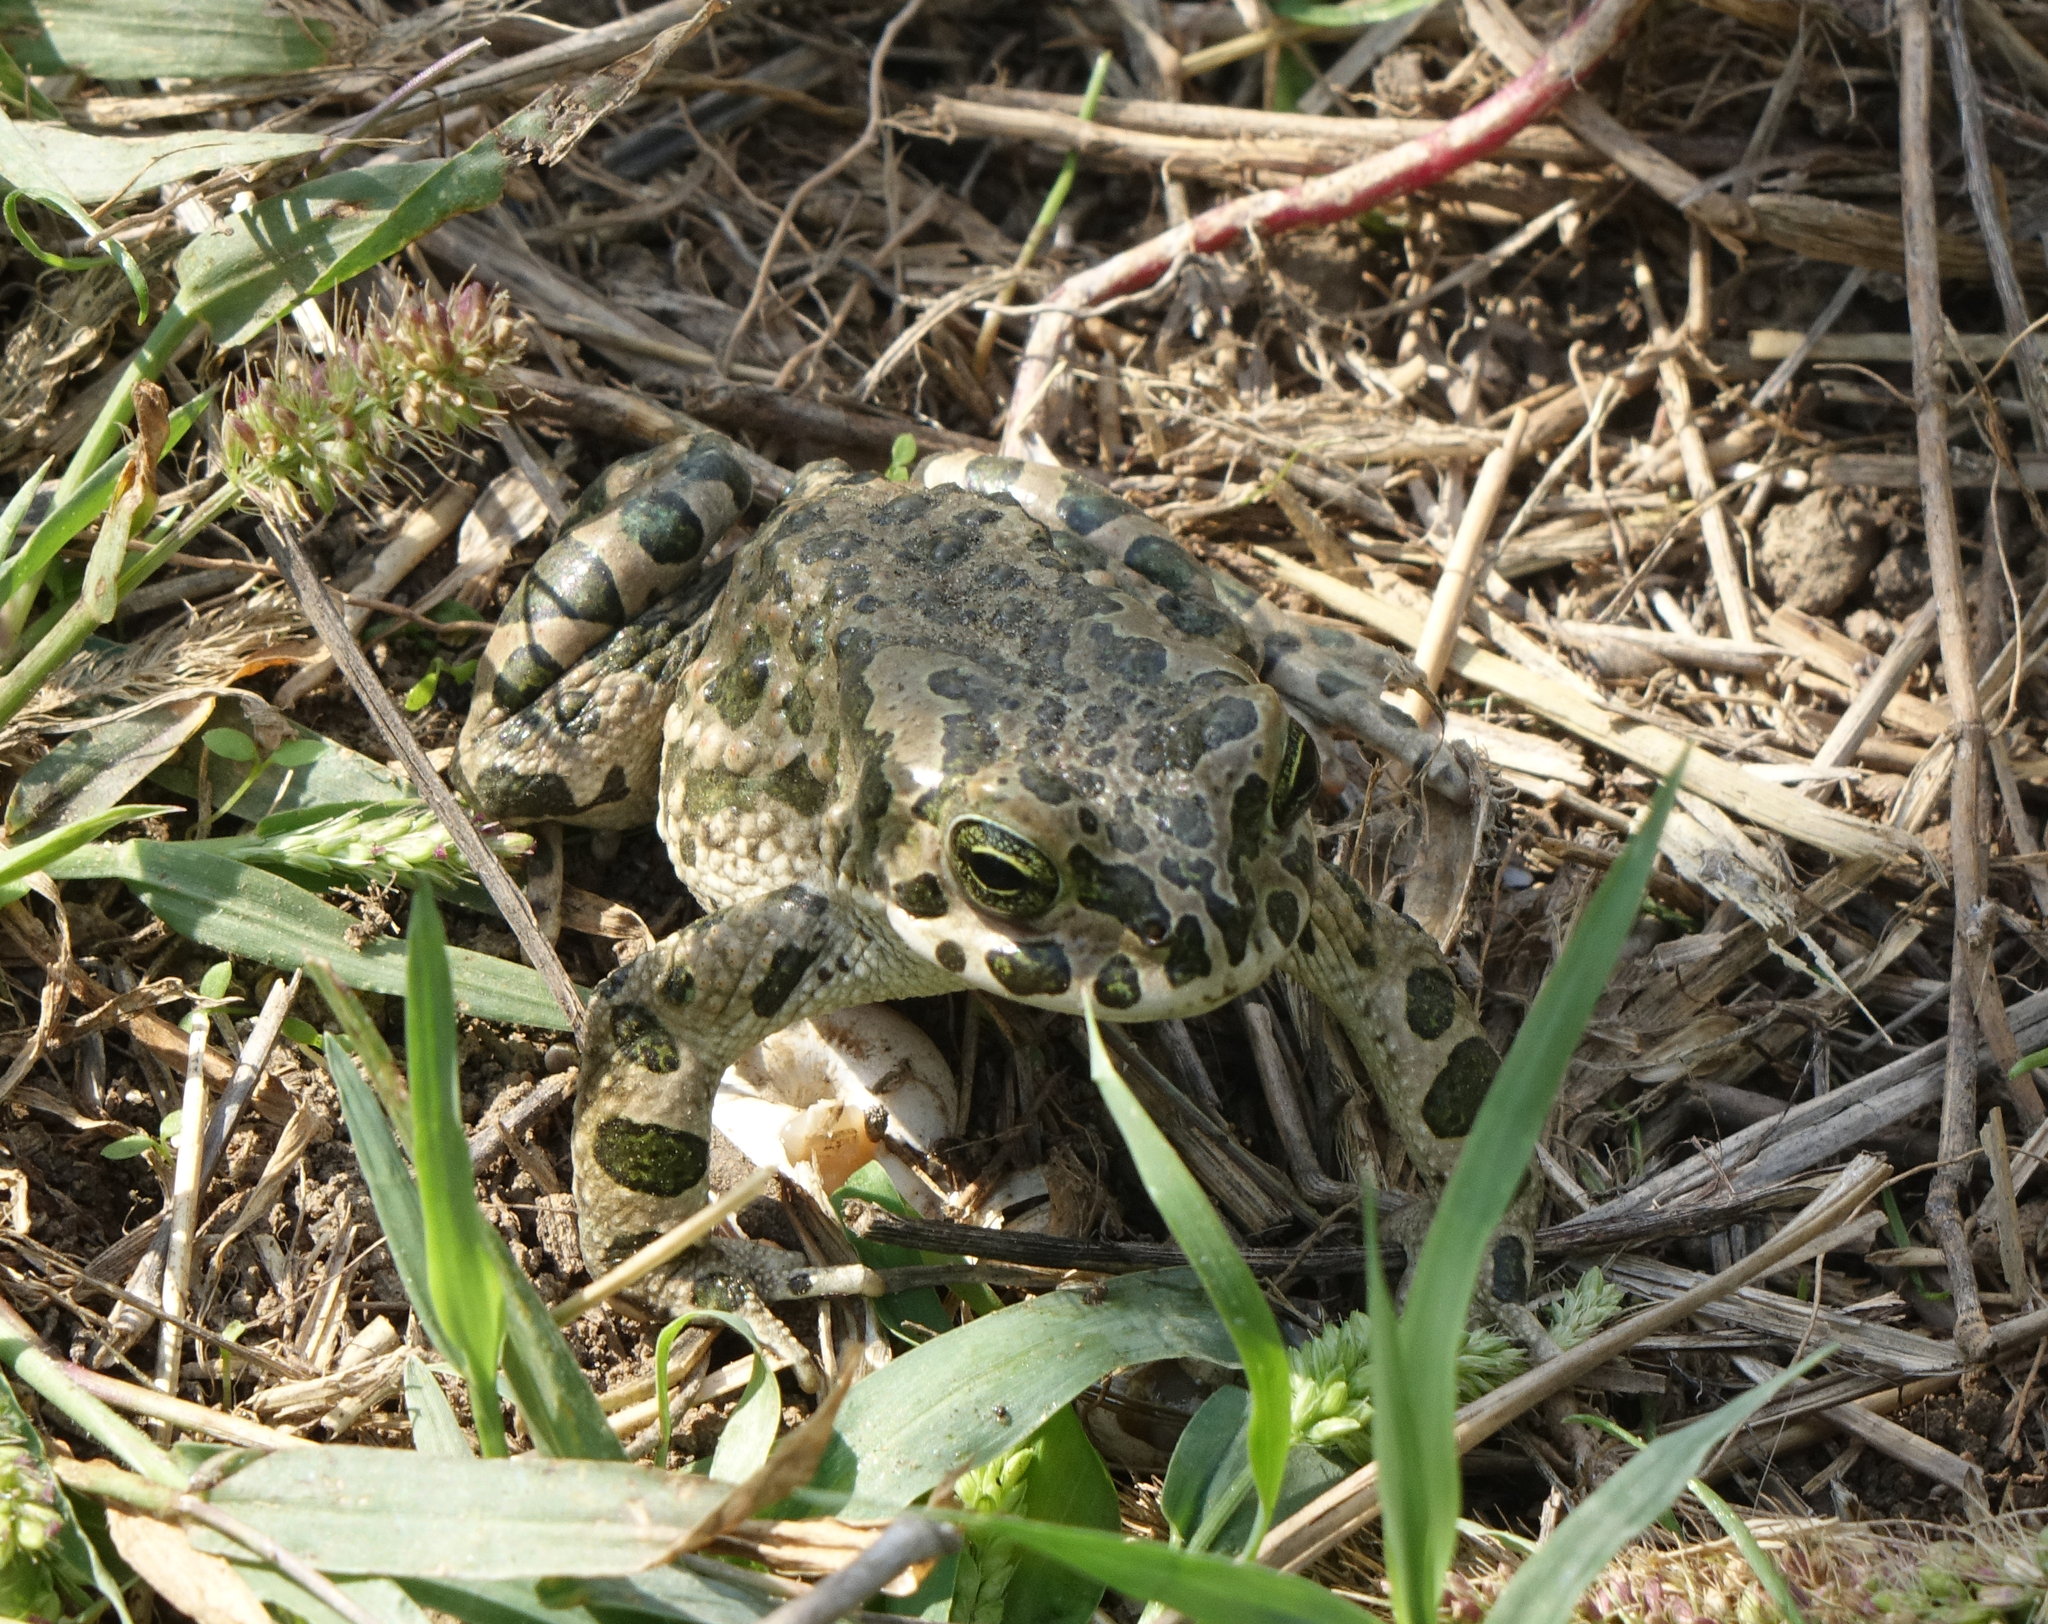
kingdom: Animalia
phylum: Chordata
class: Amphibia
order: Anura
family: Bufonidae
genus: Bufotes
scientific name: Bufotes viridis
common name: European green toad
